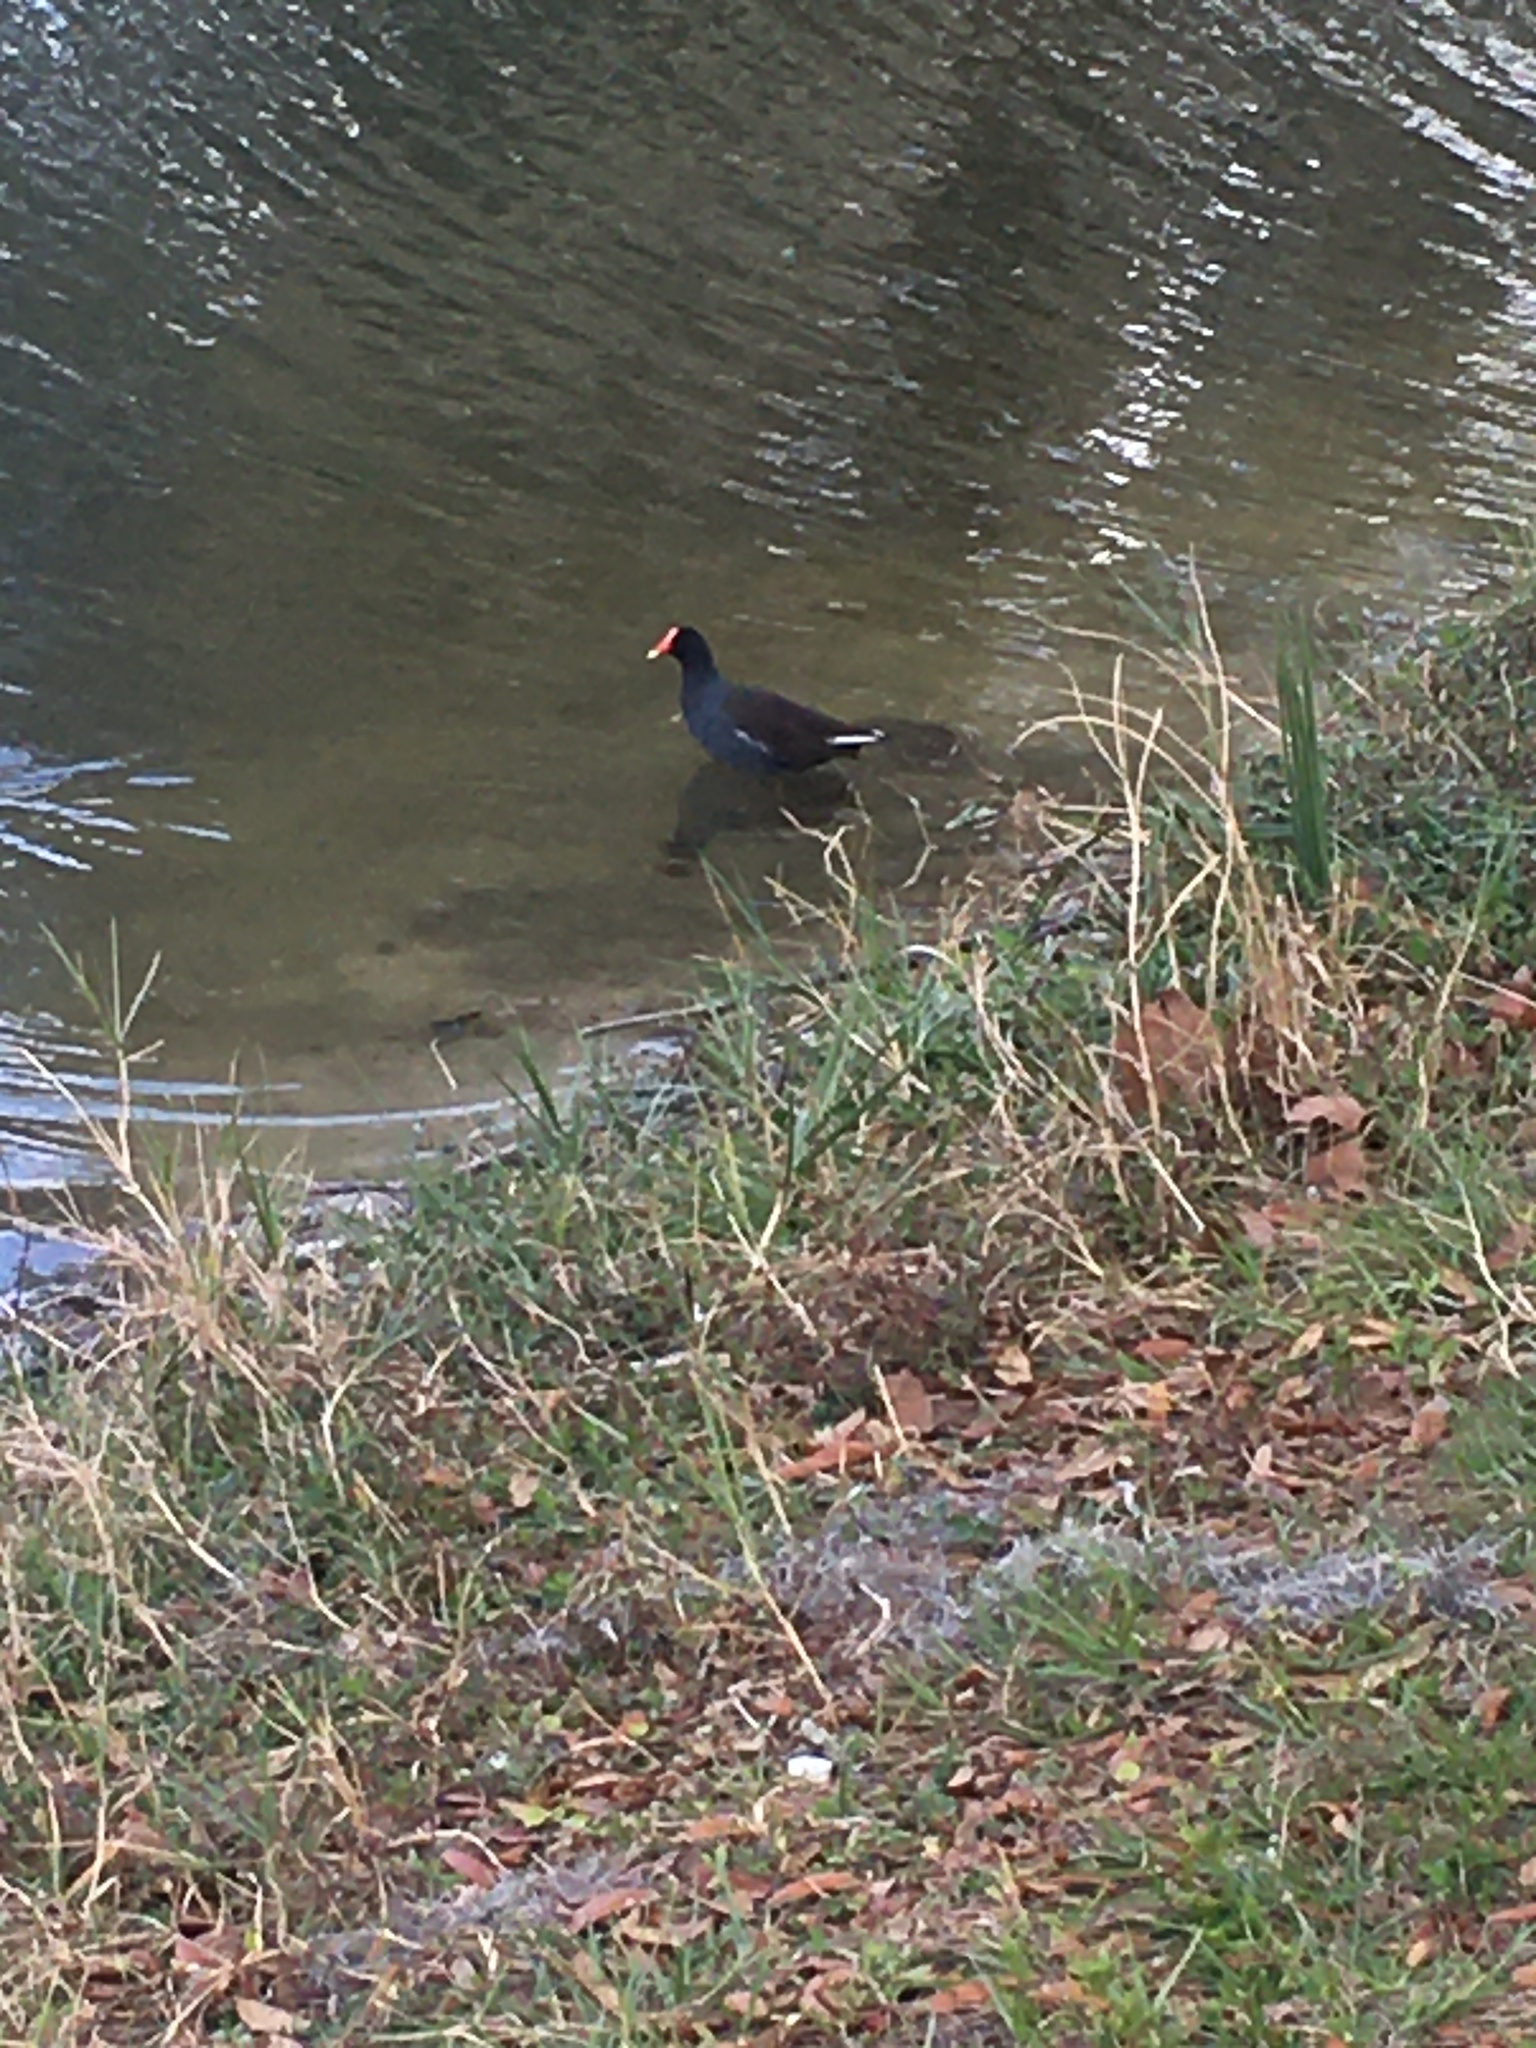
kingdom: Animalia
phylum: Chordata
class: Aves
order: Gruiformes
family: Rallidae
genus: Gallinula
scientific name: Gallinula chloropus
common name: Common moorhen
